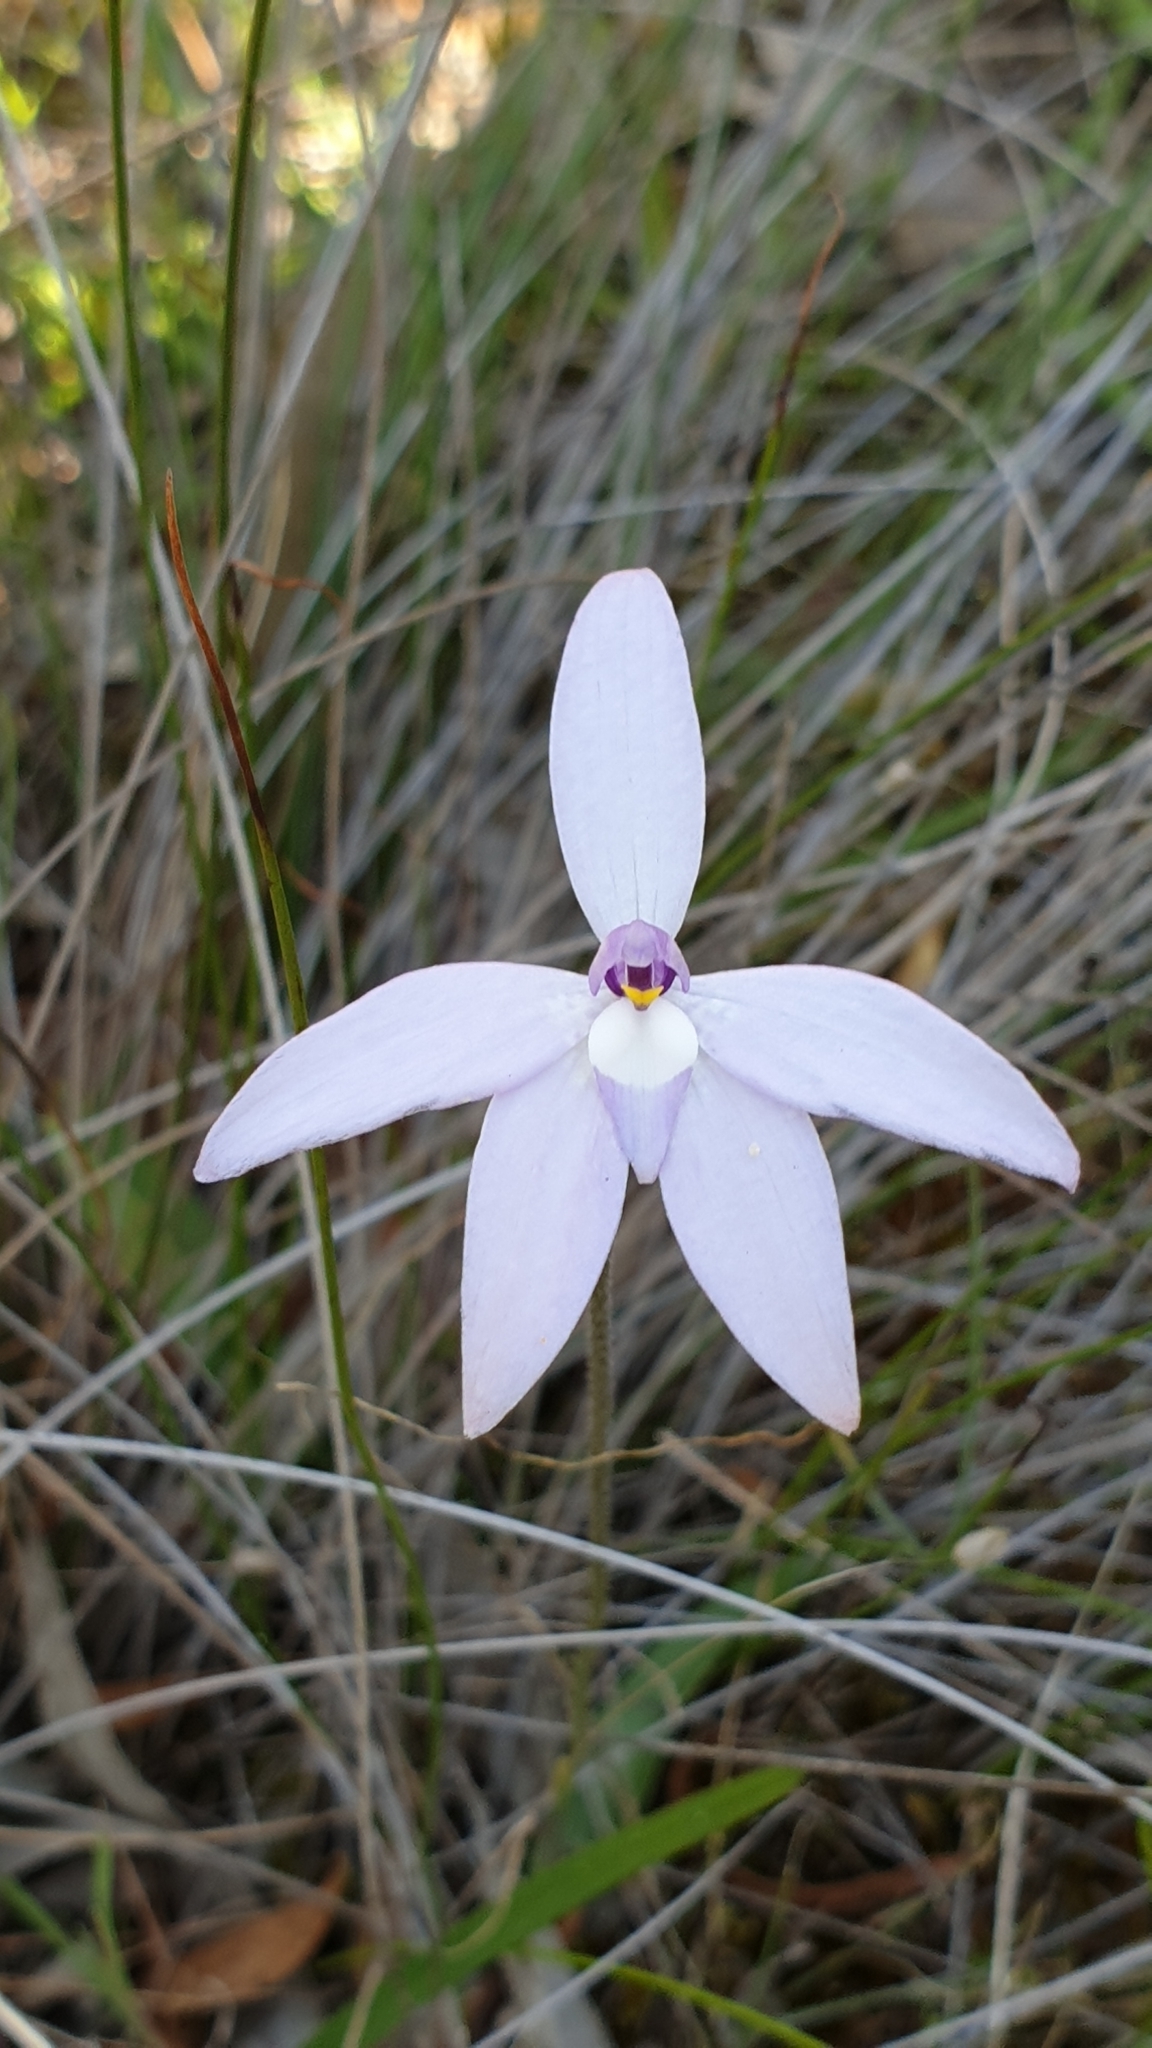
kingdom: Plantae
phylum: Tracheophyta
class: Liliopsida
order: Asparagales
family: Orchidaceae
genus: Caladenia
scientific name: Caladenia major
